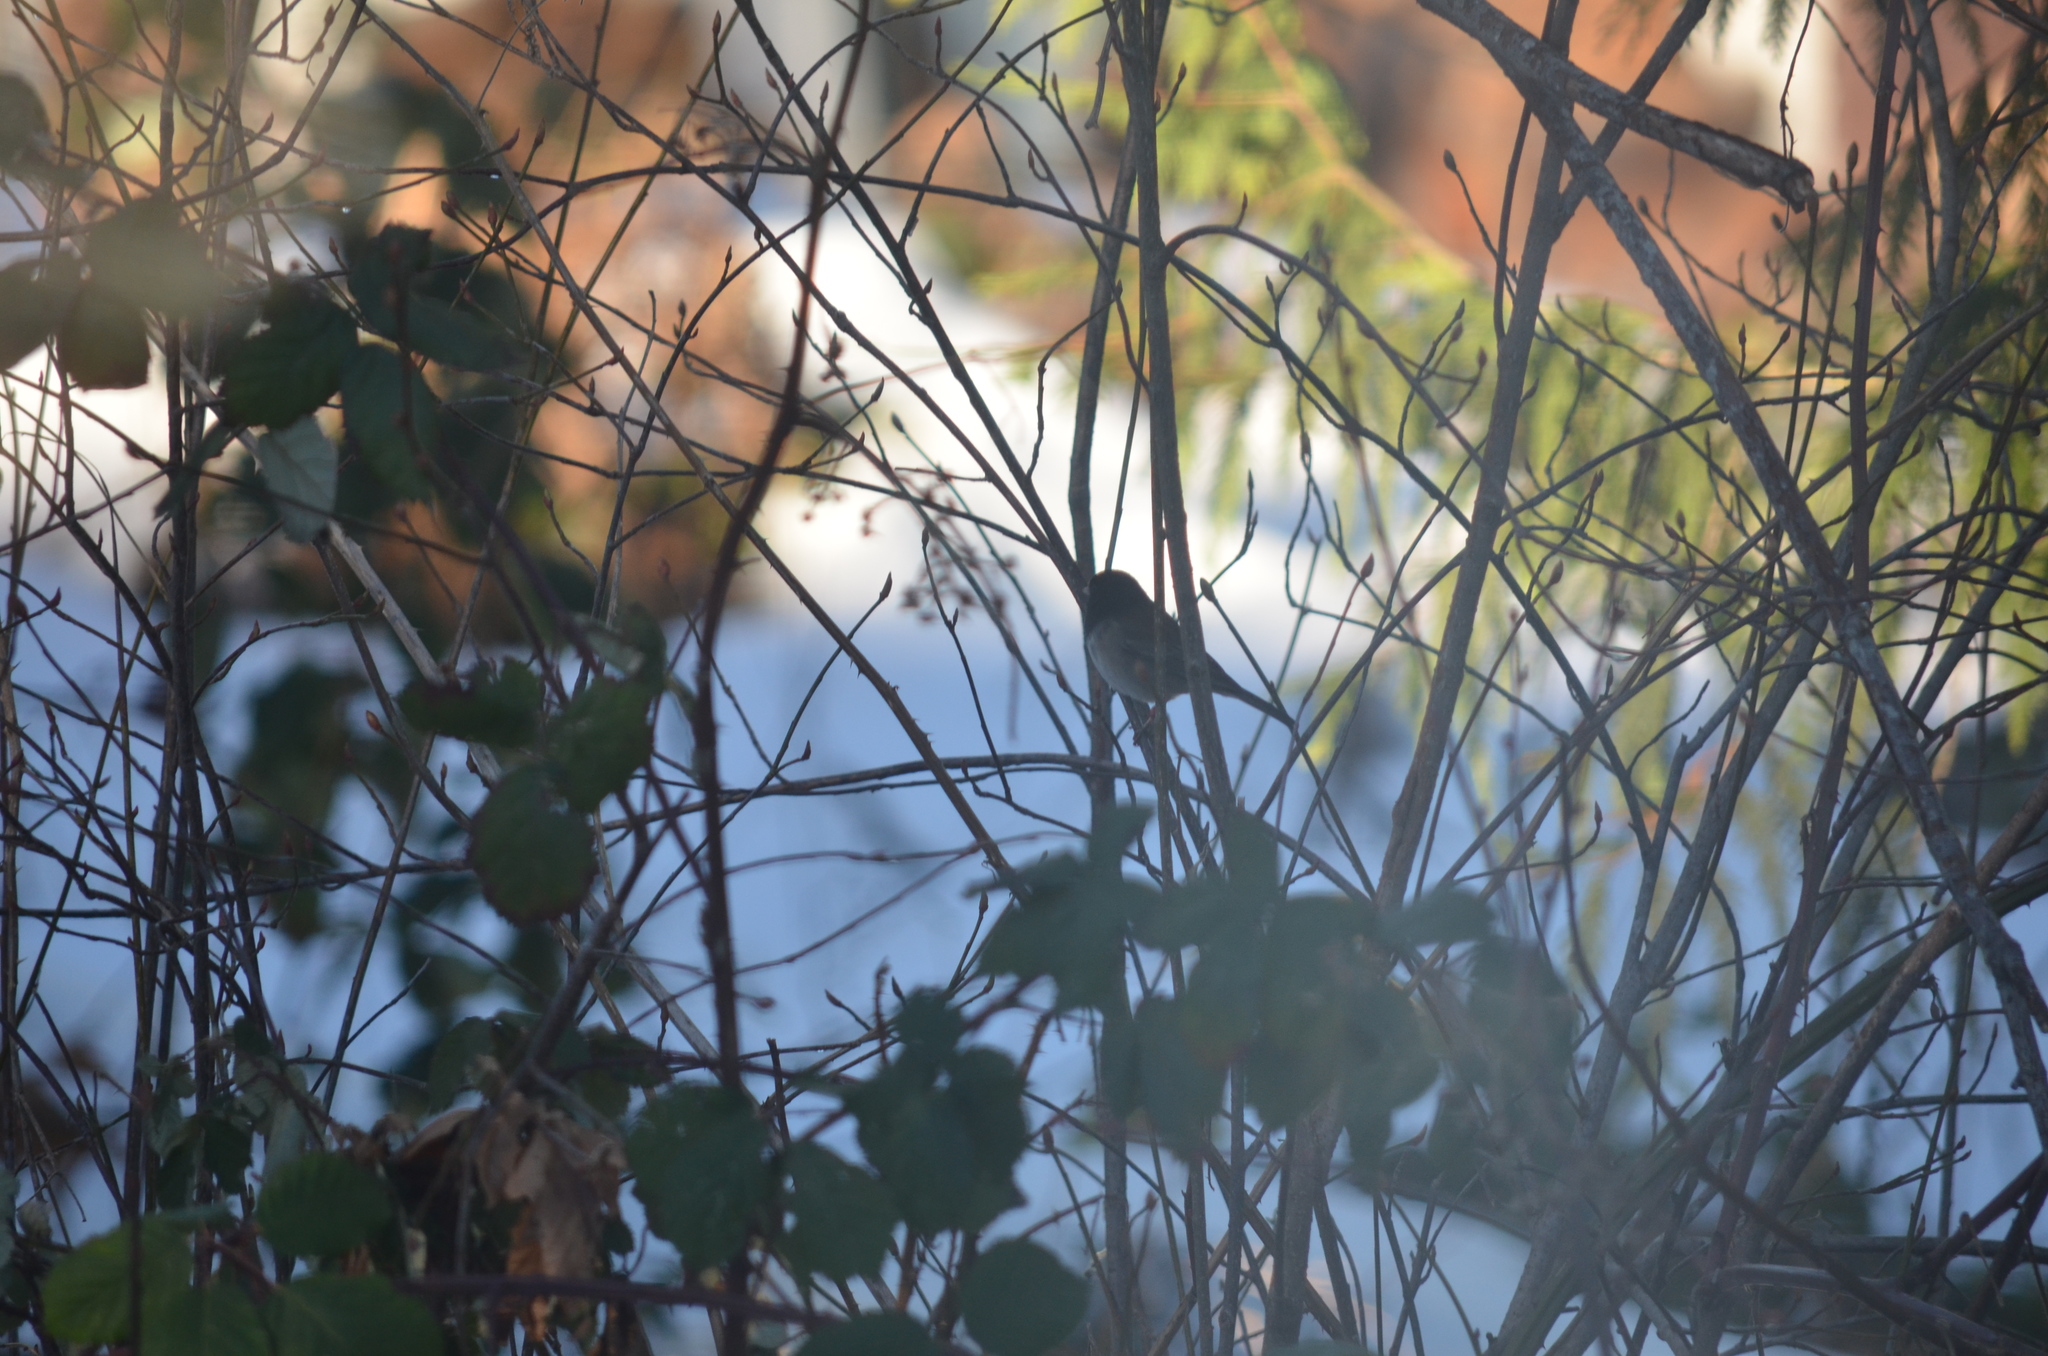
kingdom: Animalia
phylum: Chordata
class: Aves
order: Passeriformes
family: Passerellidae
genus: Junco
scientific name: Junco hyemalis
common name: Dark-eyed junco
